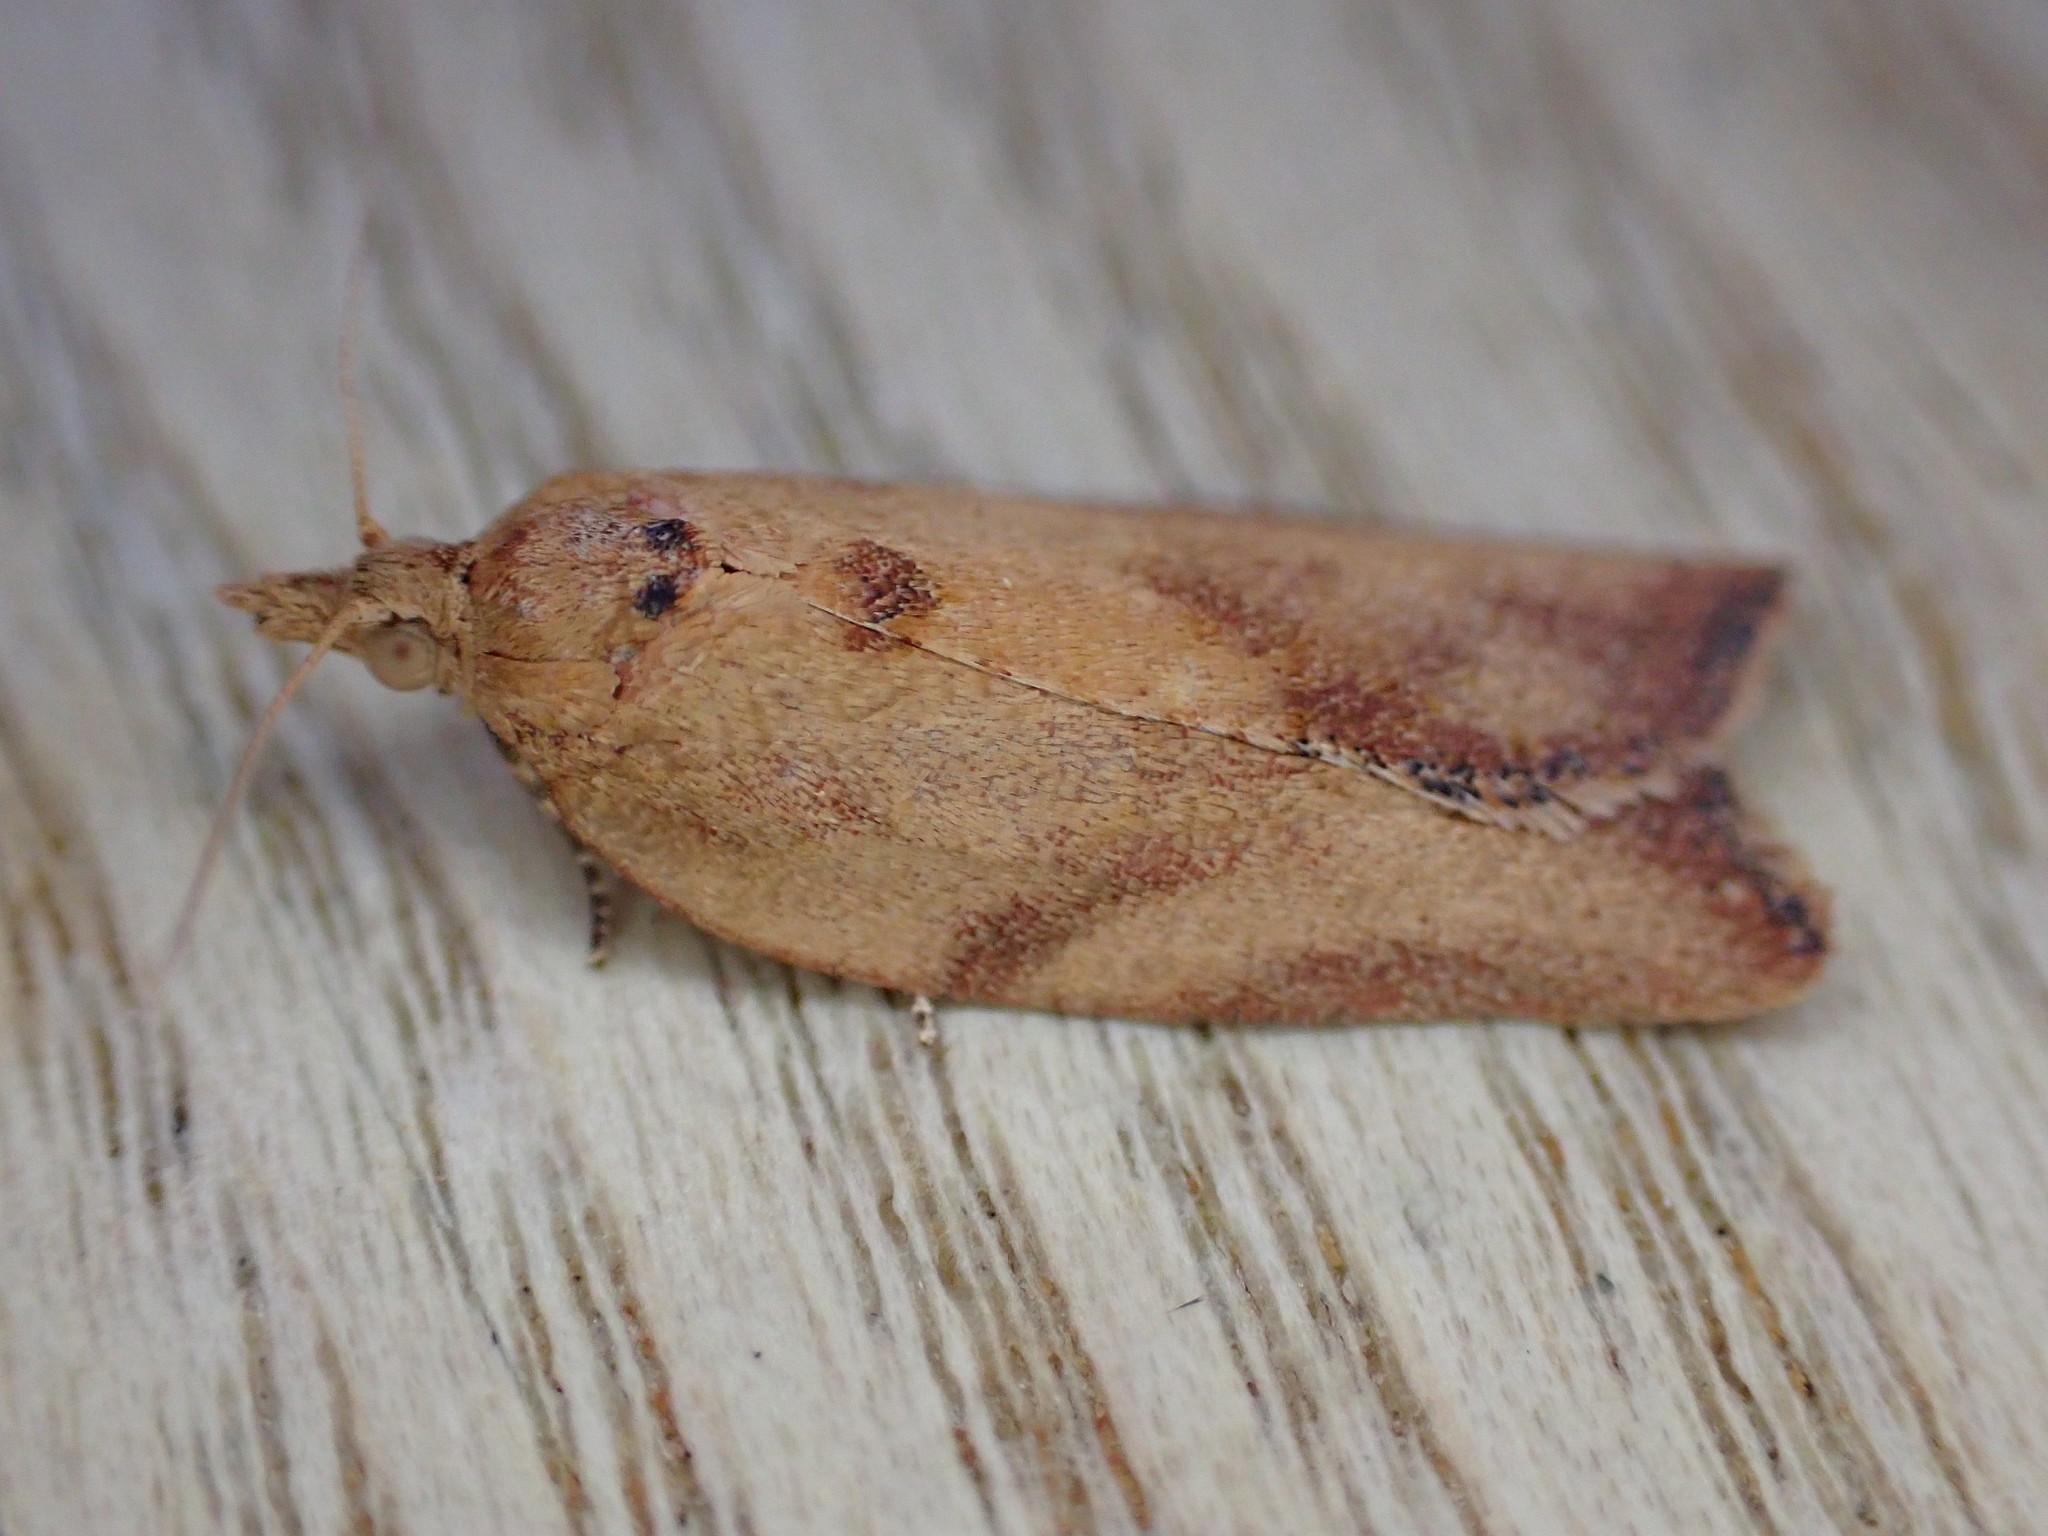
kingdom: Animalia
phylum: Arthropoda
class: Insecta
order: Lepidoptera
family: Tortricidae
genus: Epiphyas
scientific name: Epiphyas postvittana
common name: Light brown apple moth
